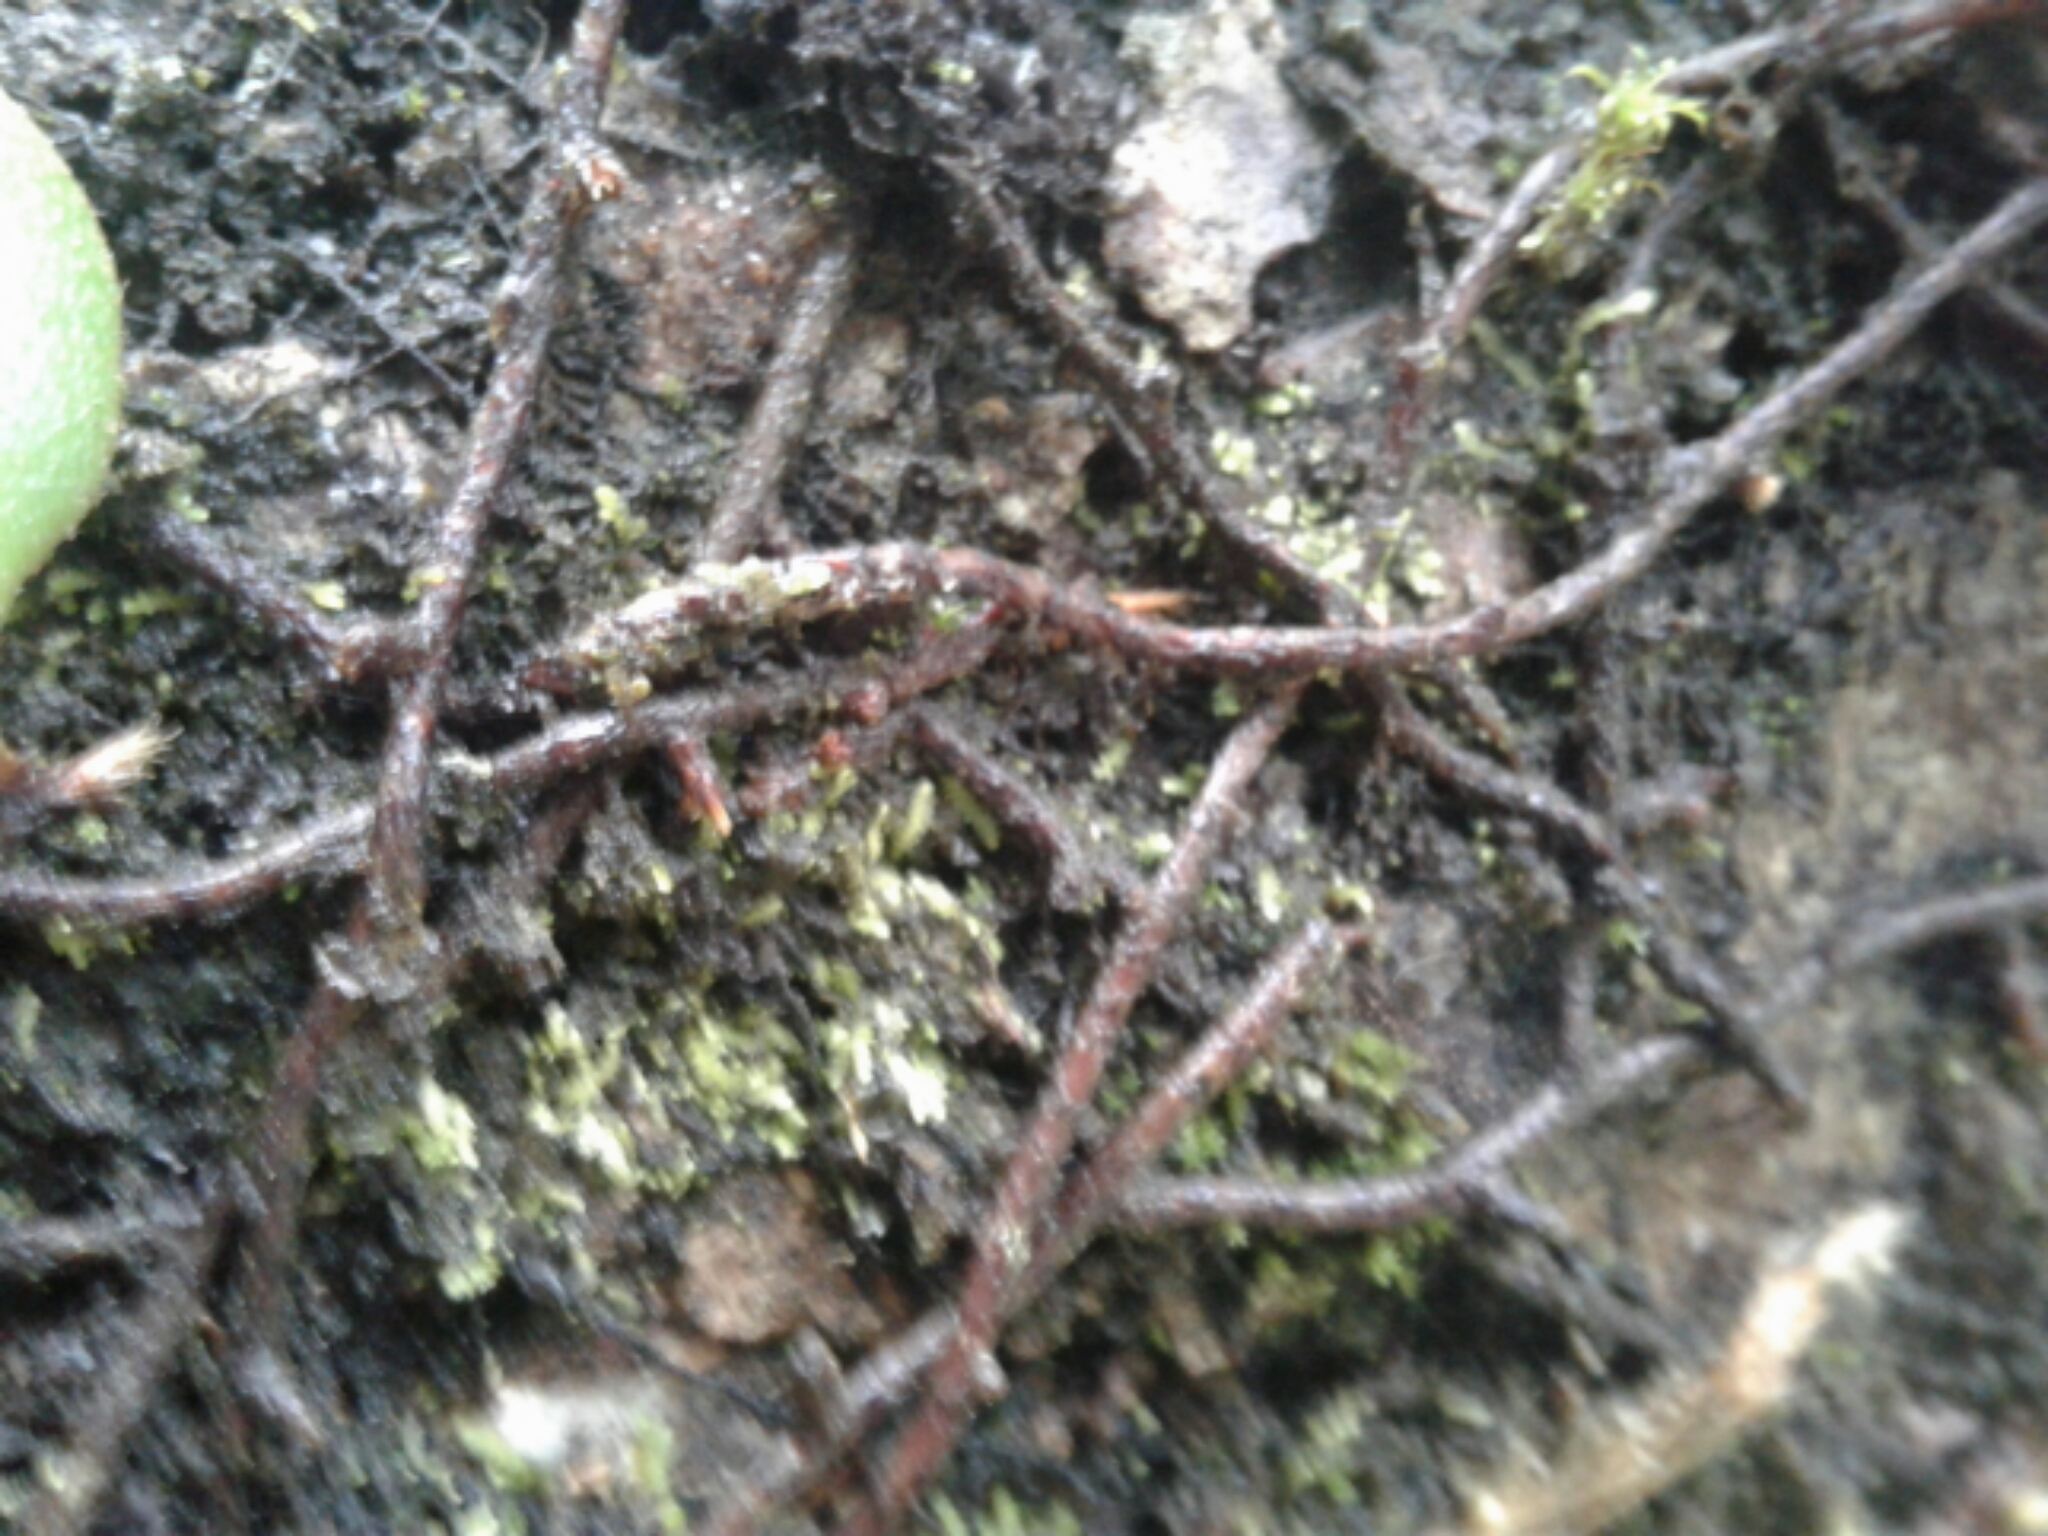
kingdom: Plantae
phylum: Tracheophyta
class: Polypodiopsida
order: Polypodiales
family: Polypodiaceae
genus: Pyrrosia
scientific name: Pyrrosia eleagnifolia
